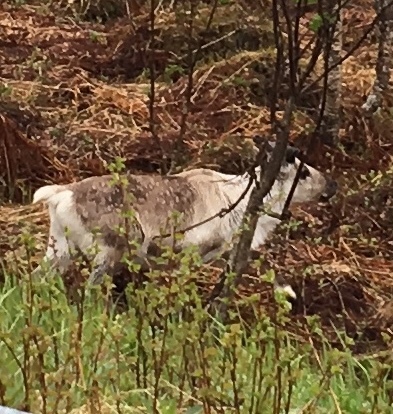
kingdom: Animalia
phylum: Chordata
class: Mammalia
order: Artiodactyla
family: Cervidae
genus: Rangifer
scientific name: Rangifer tarandus
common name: Reindeer
